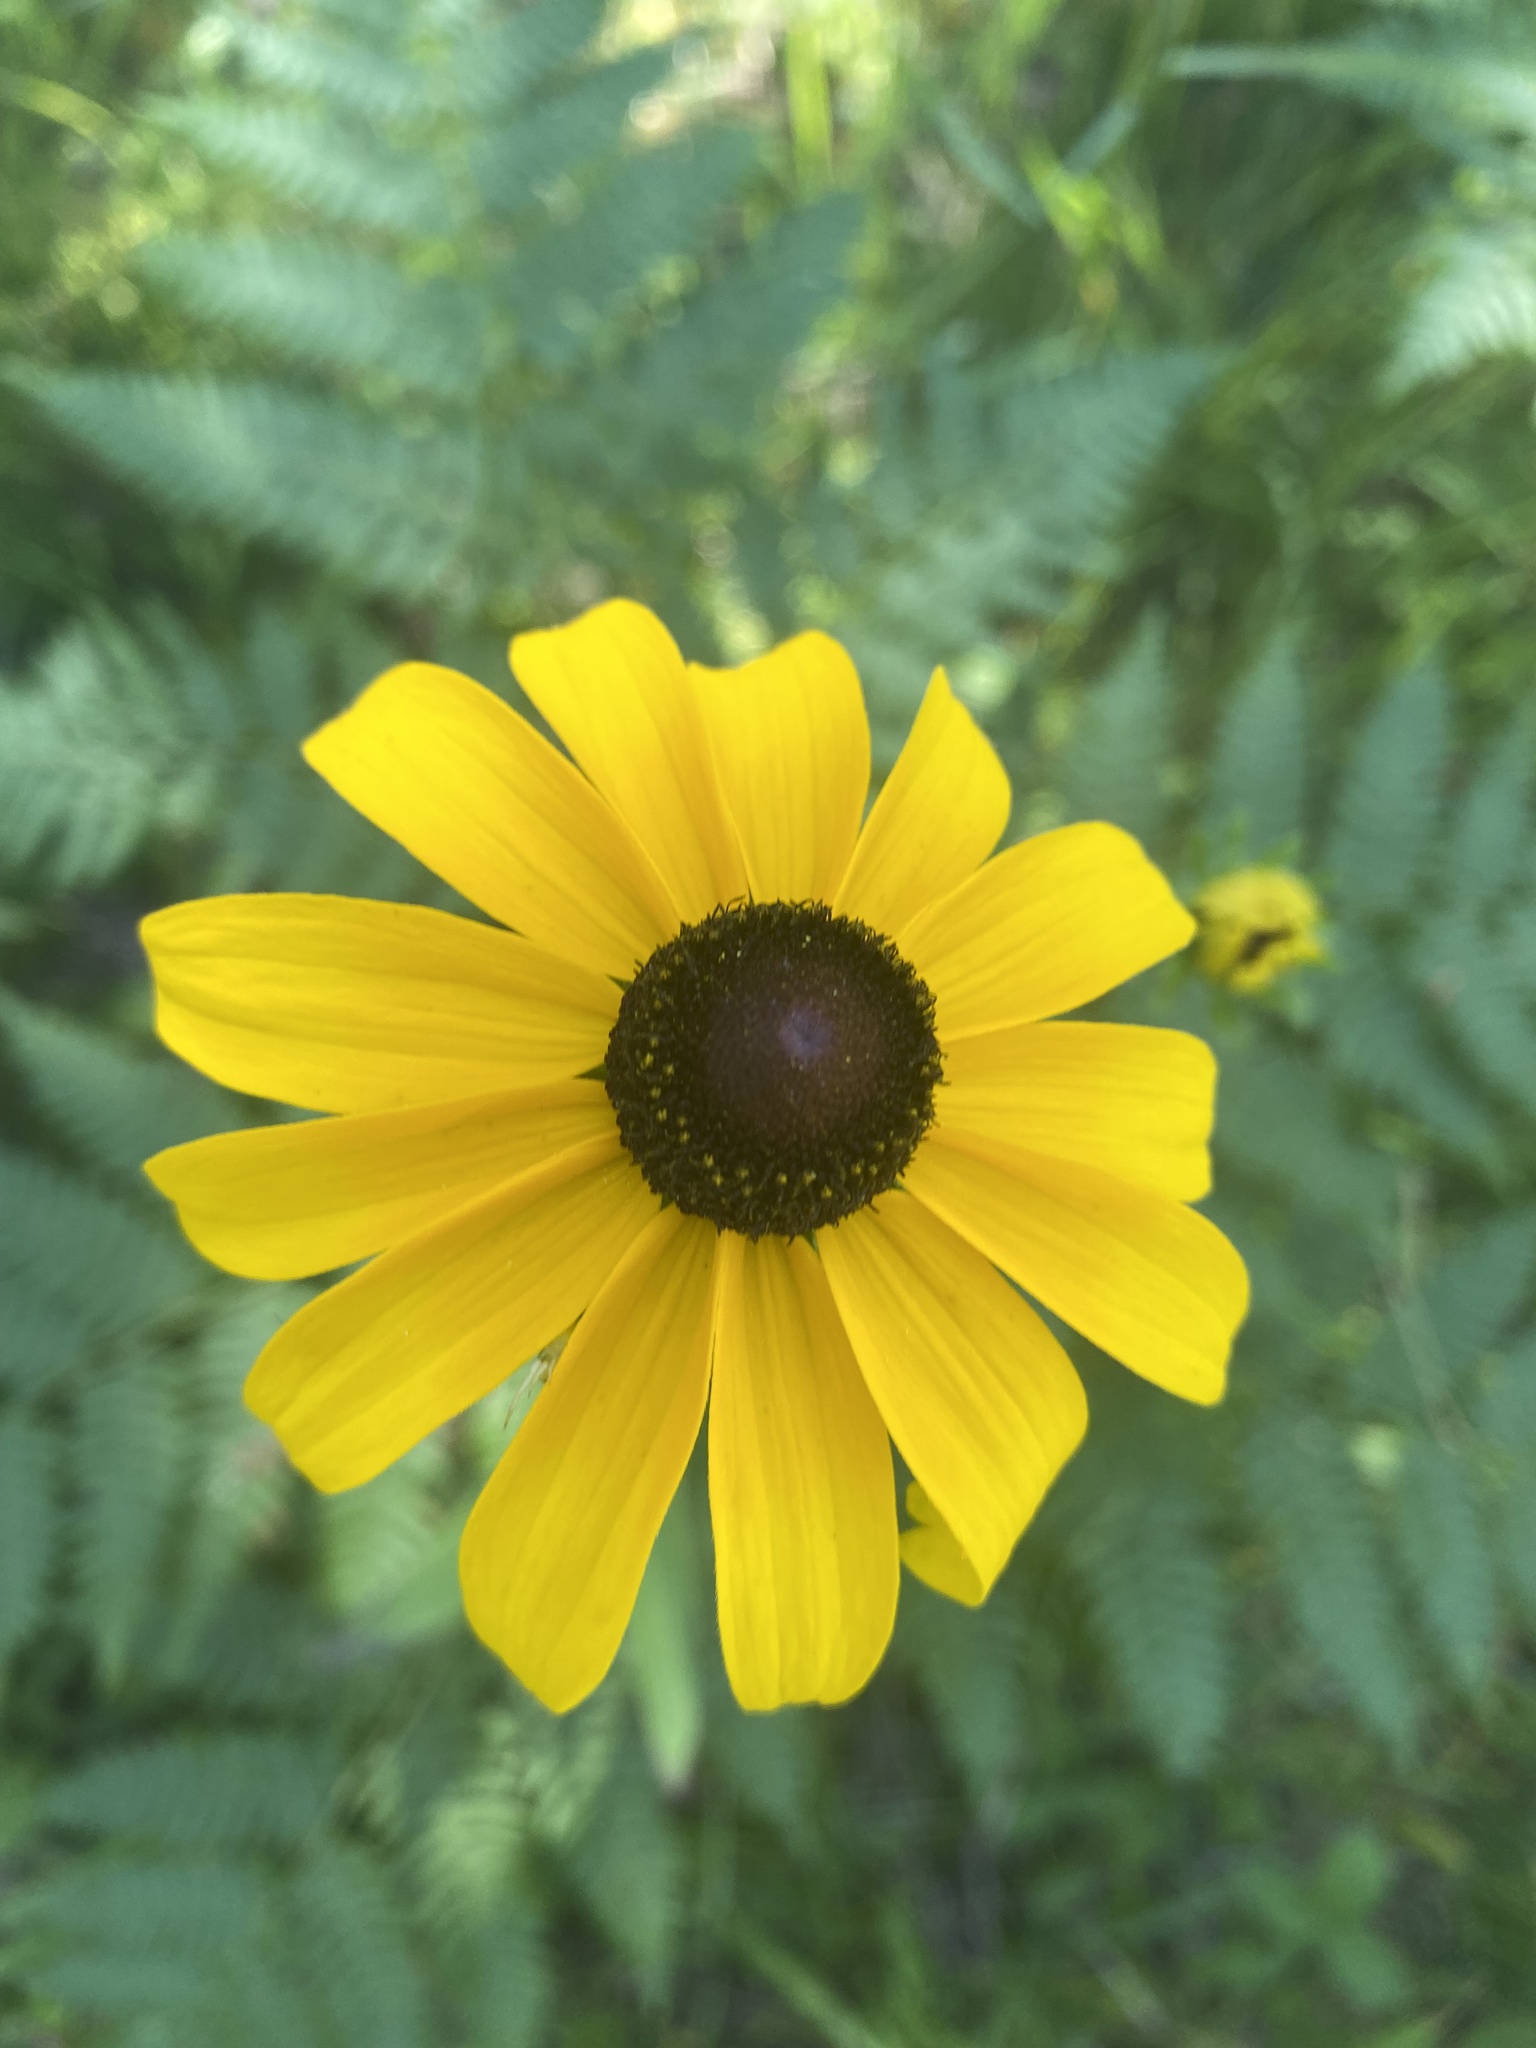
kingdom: Plantae
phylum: Tracheophyta
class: Magnoliopsida
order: Asterales
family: Asteraceae
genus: Rudbeckia
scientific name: Rudbeckia hirta
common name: Black-eyed-susan
